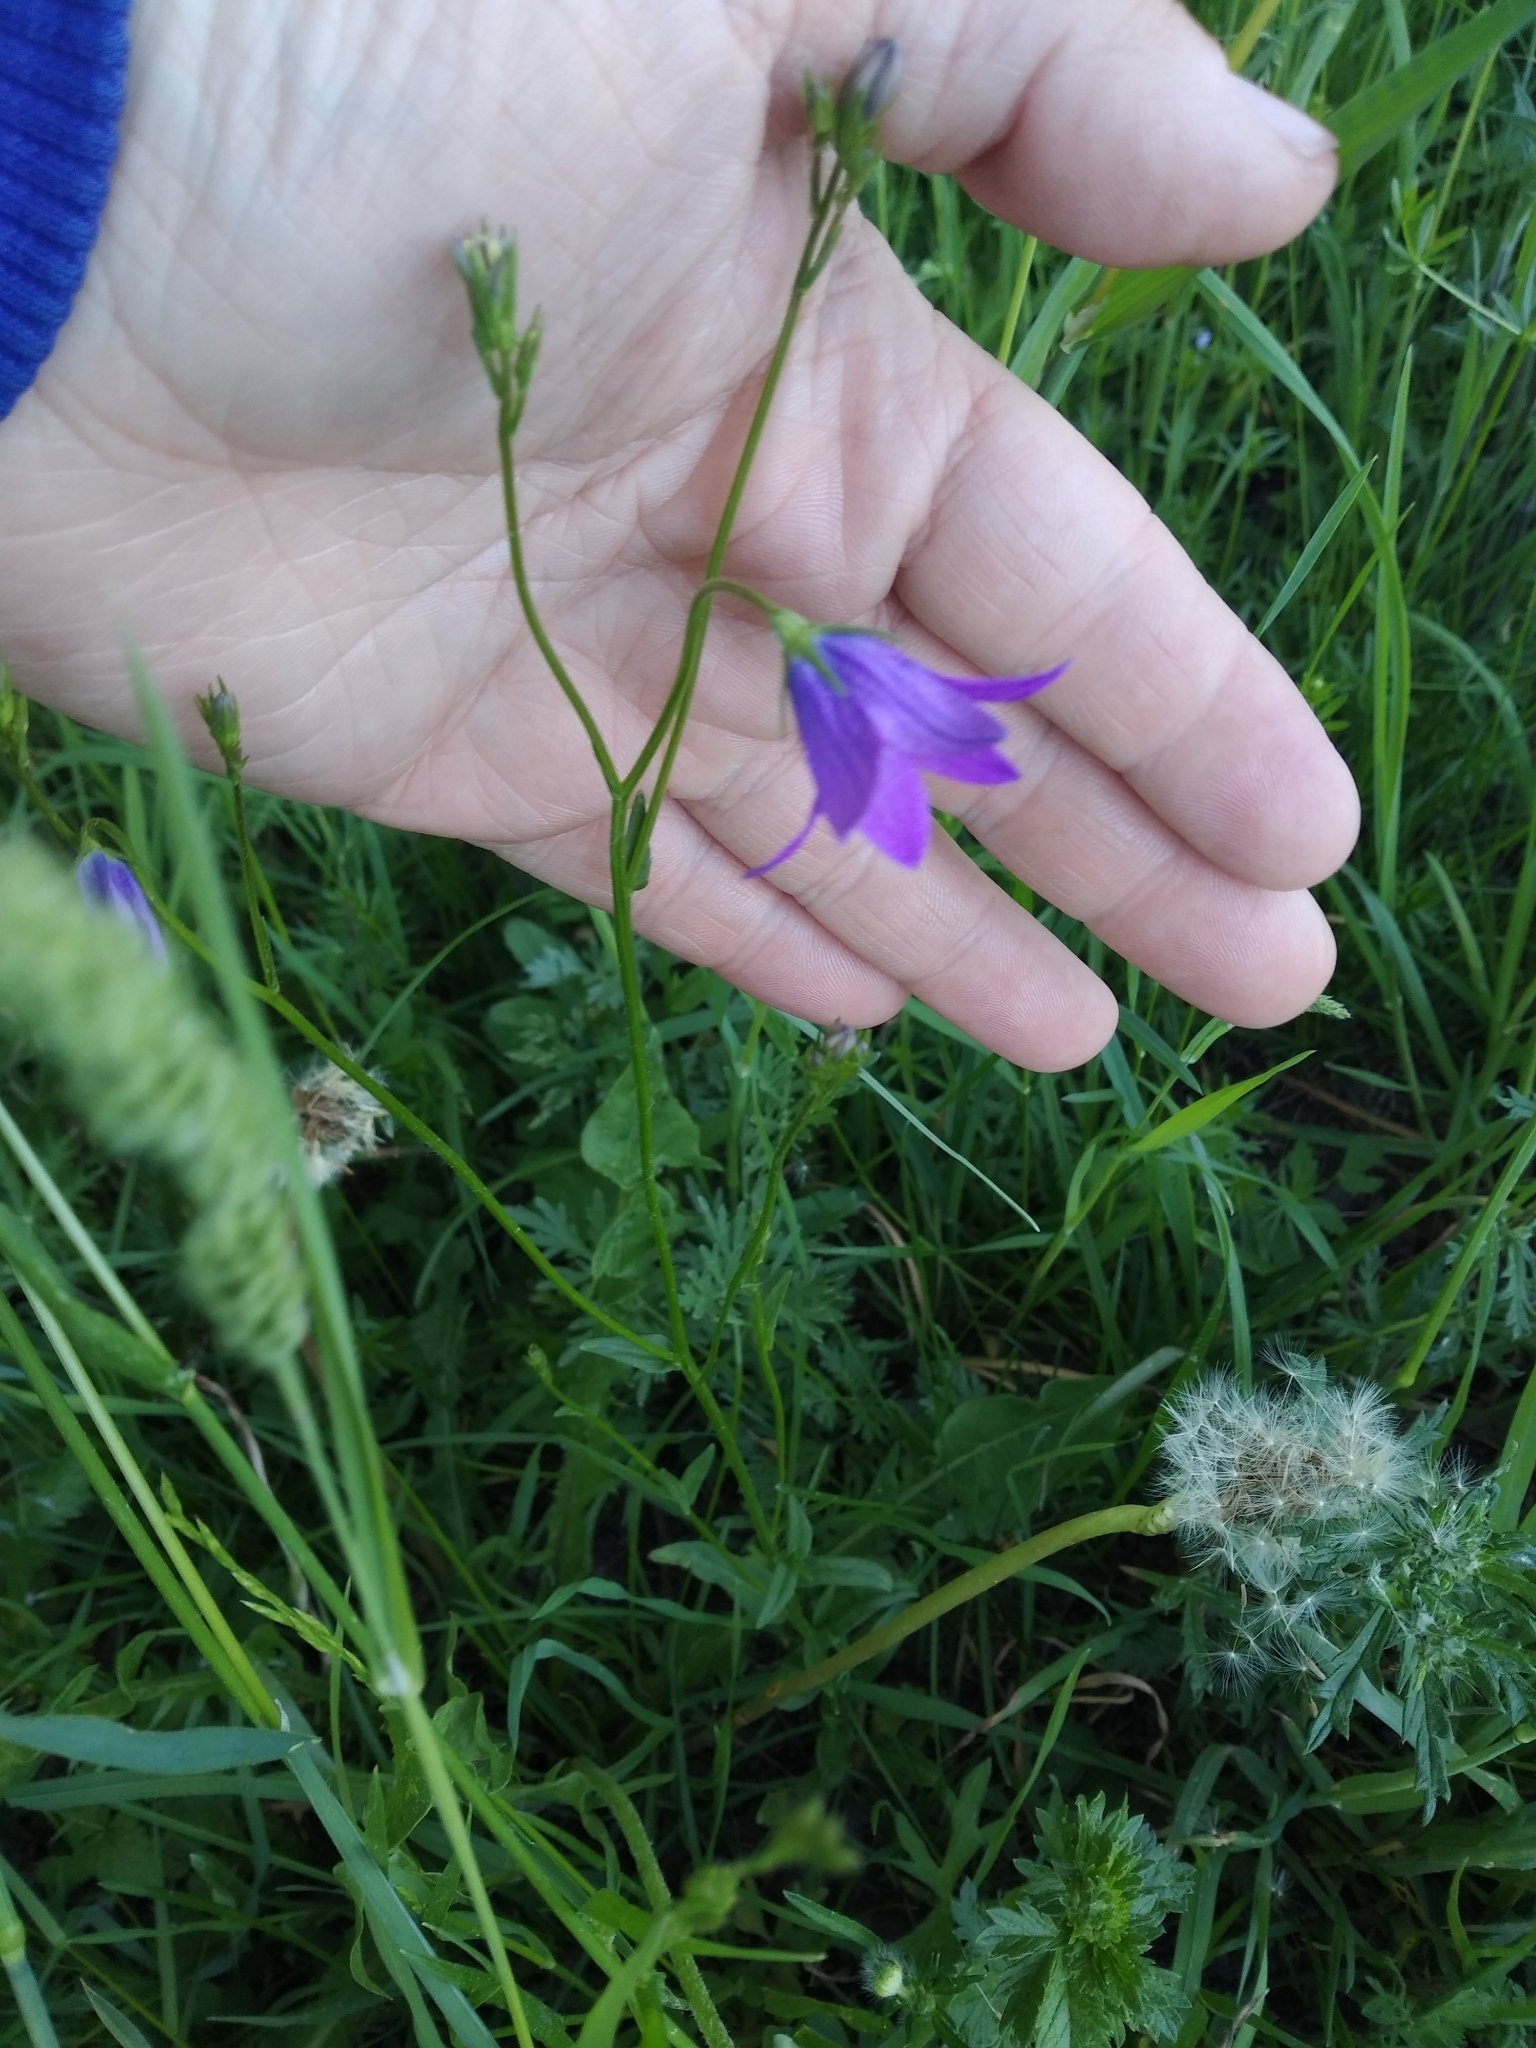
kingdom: Plantae
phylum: Tracheophyta
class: Magnoliopsida
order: Asterales
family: Campanulaceae
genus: Campanula
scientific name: Campanula patula
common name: Spreading bellflower
